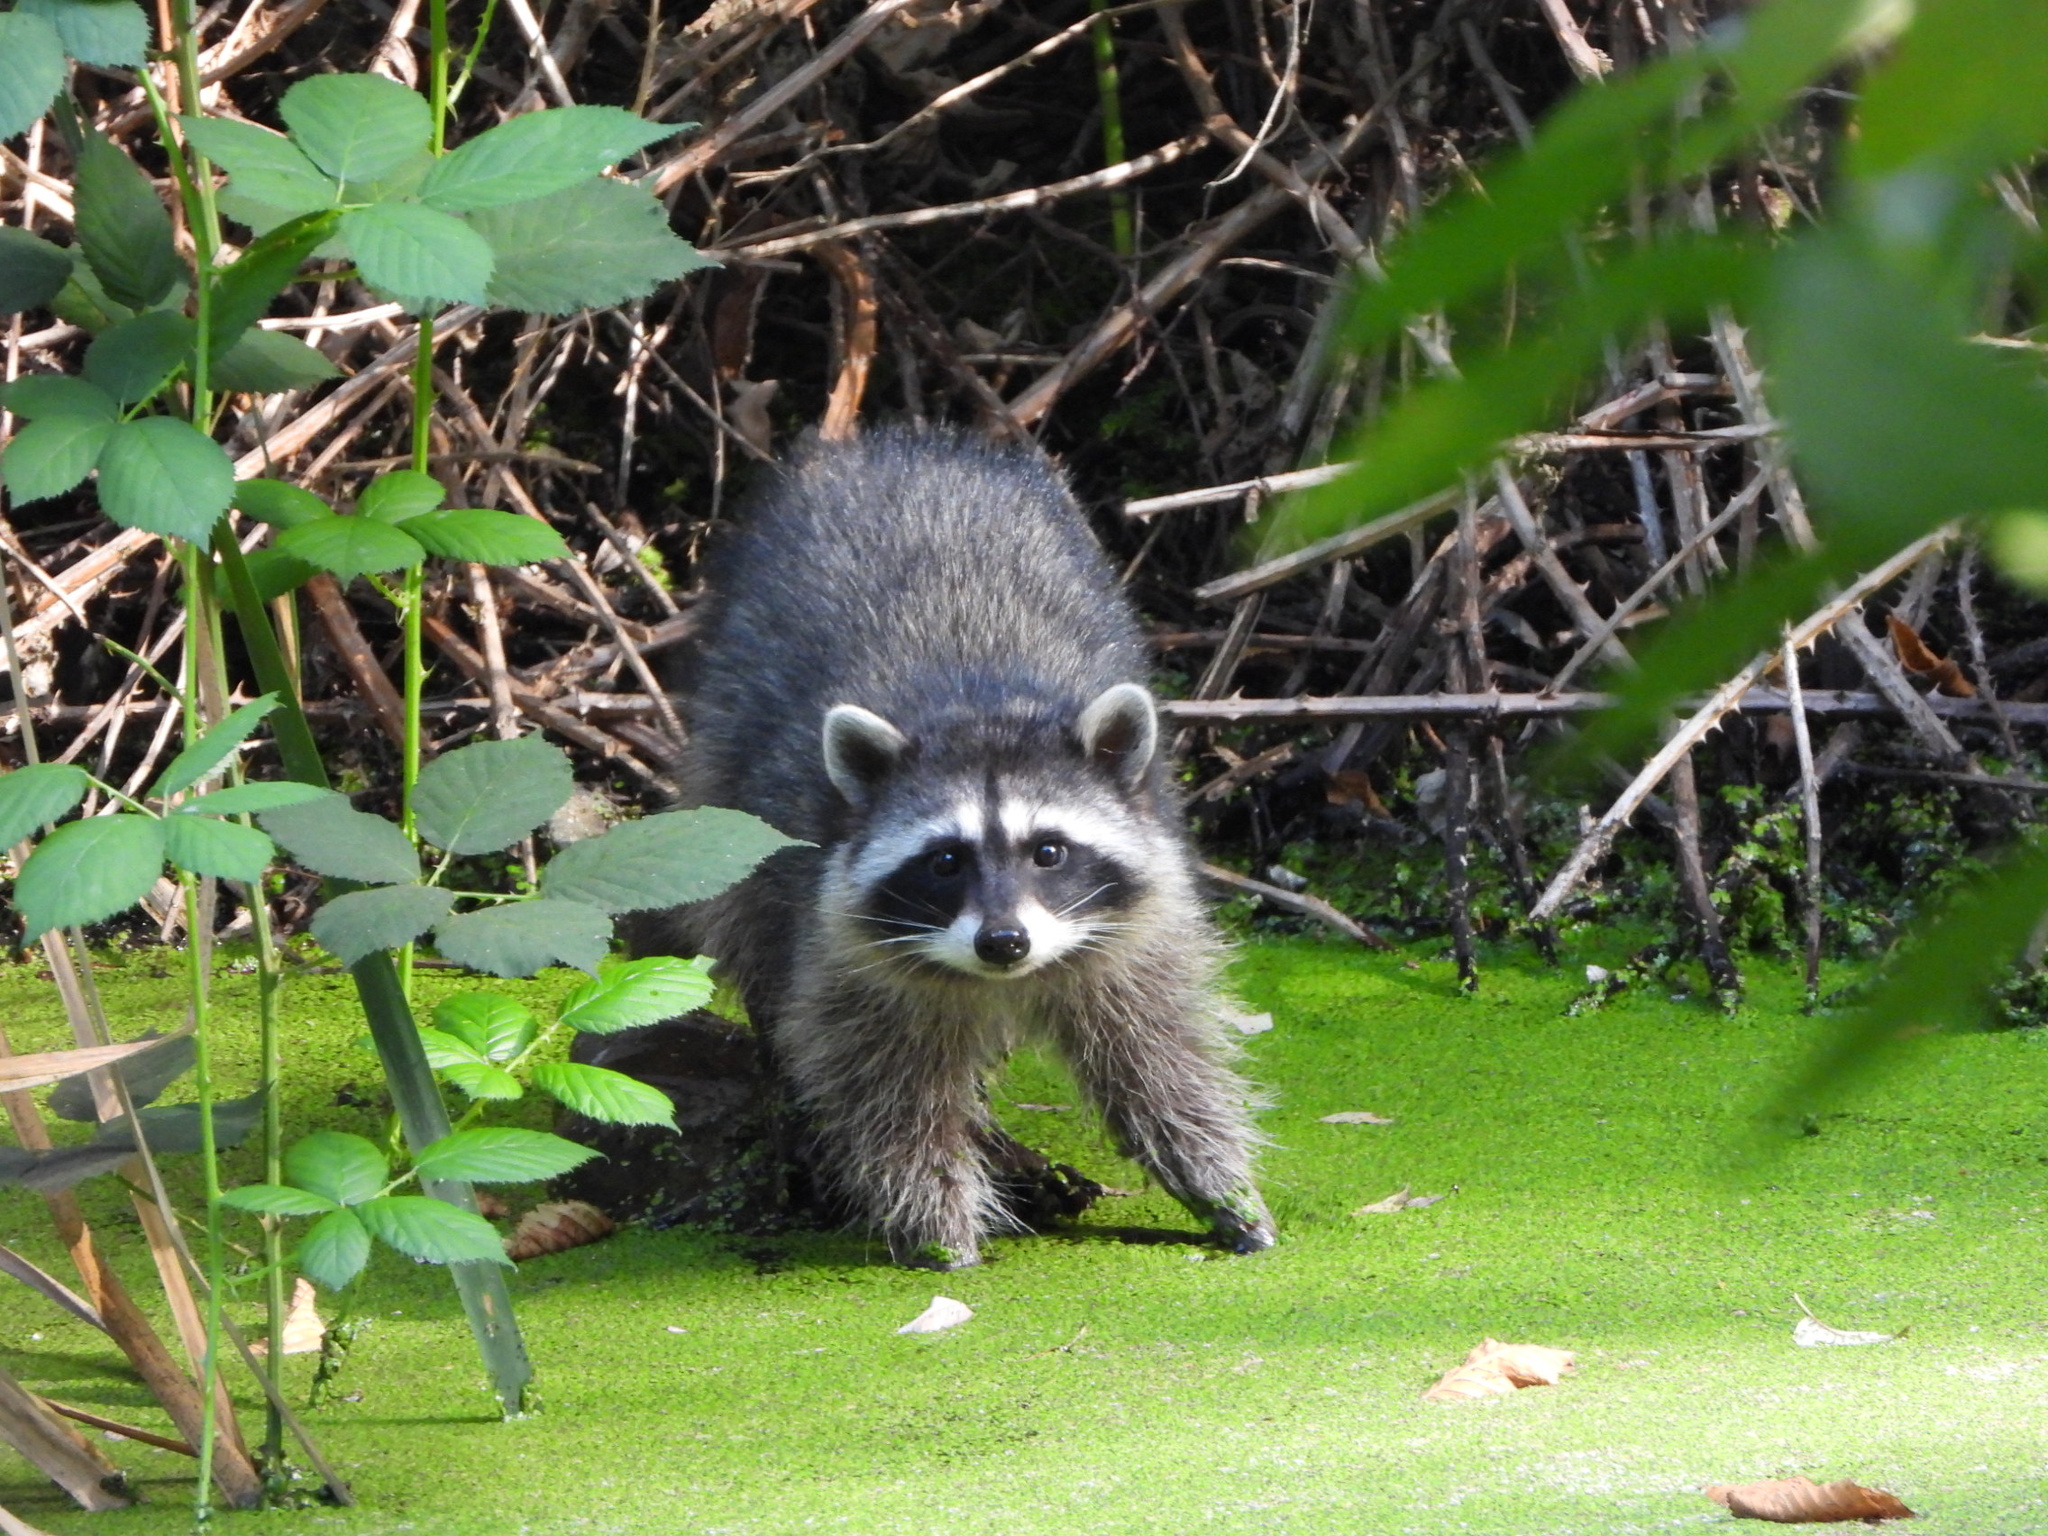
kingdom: Animalia
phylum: Chordata
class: Mammalia
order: Carnivora
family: Procyonidae
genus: Procyon
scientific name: Procyon lotor
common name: Raccoon
